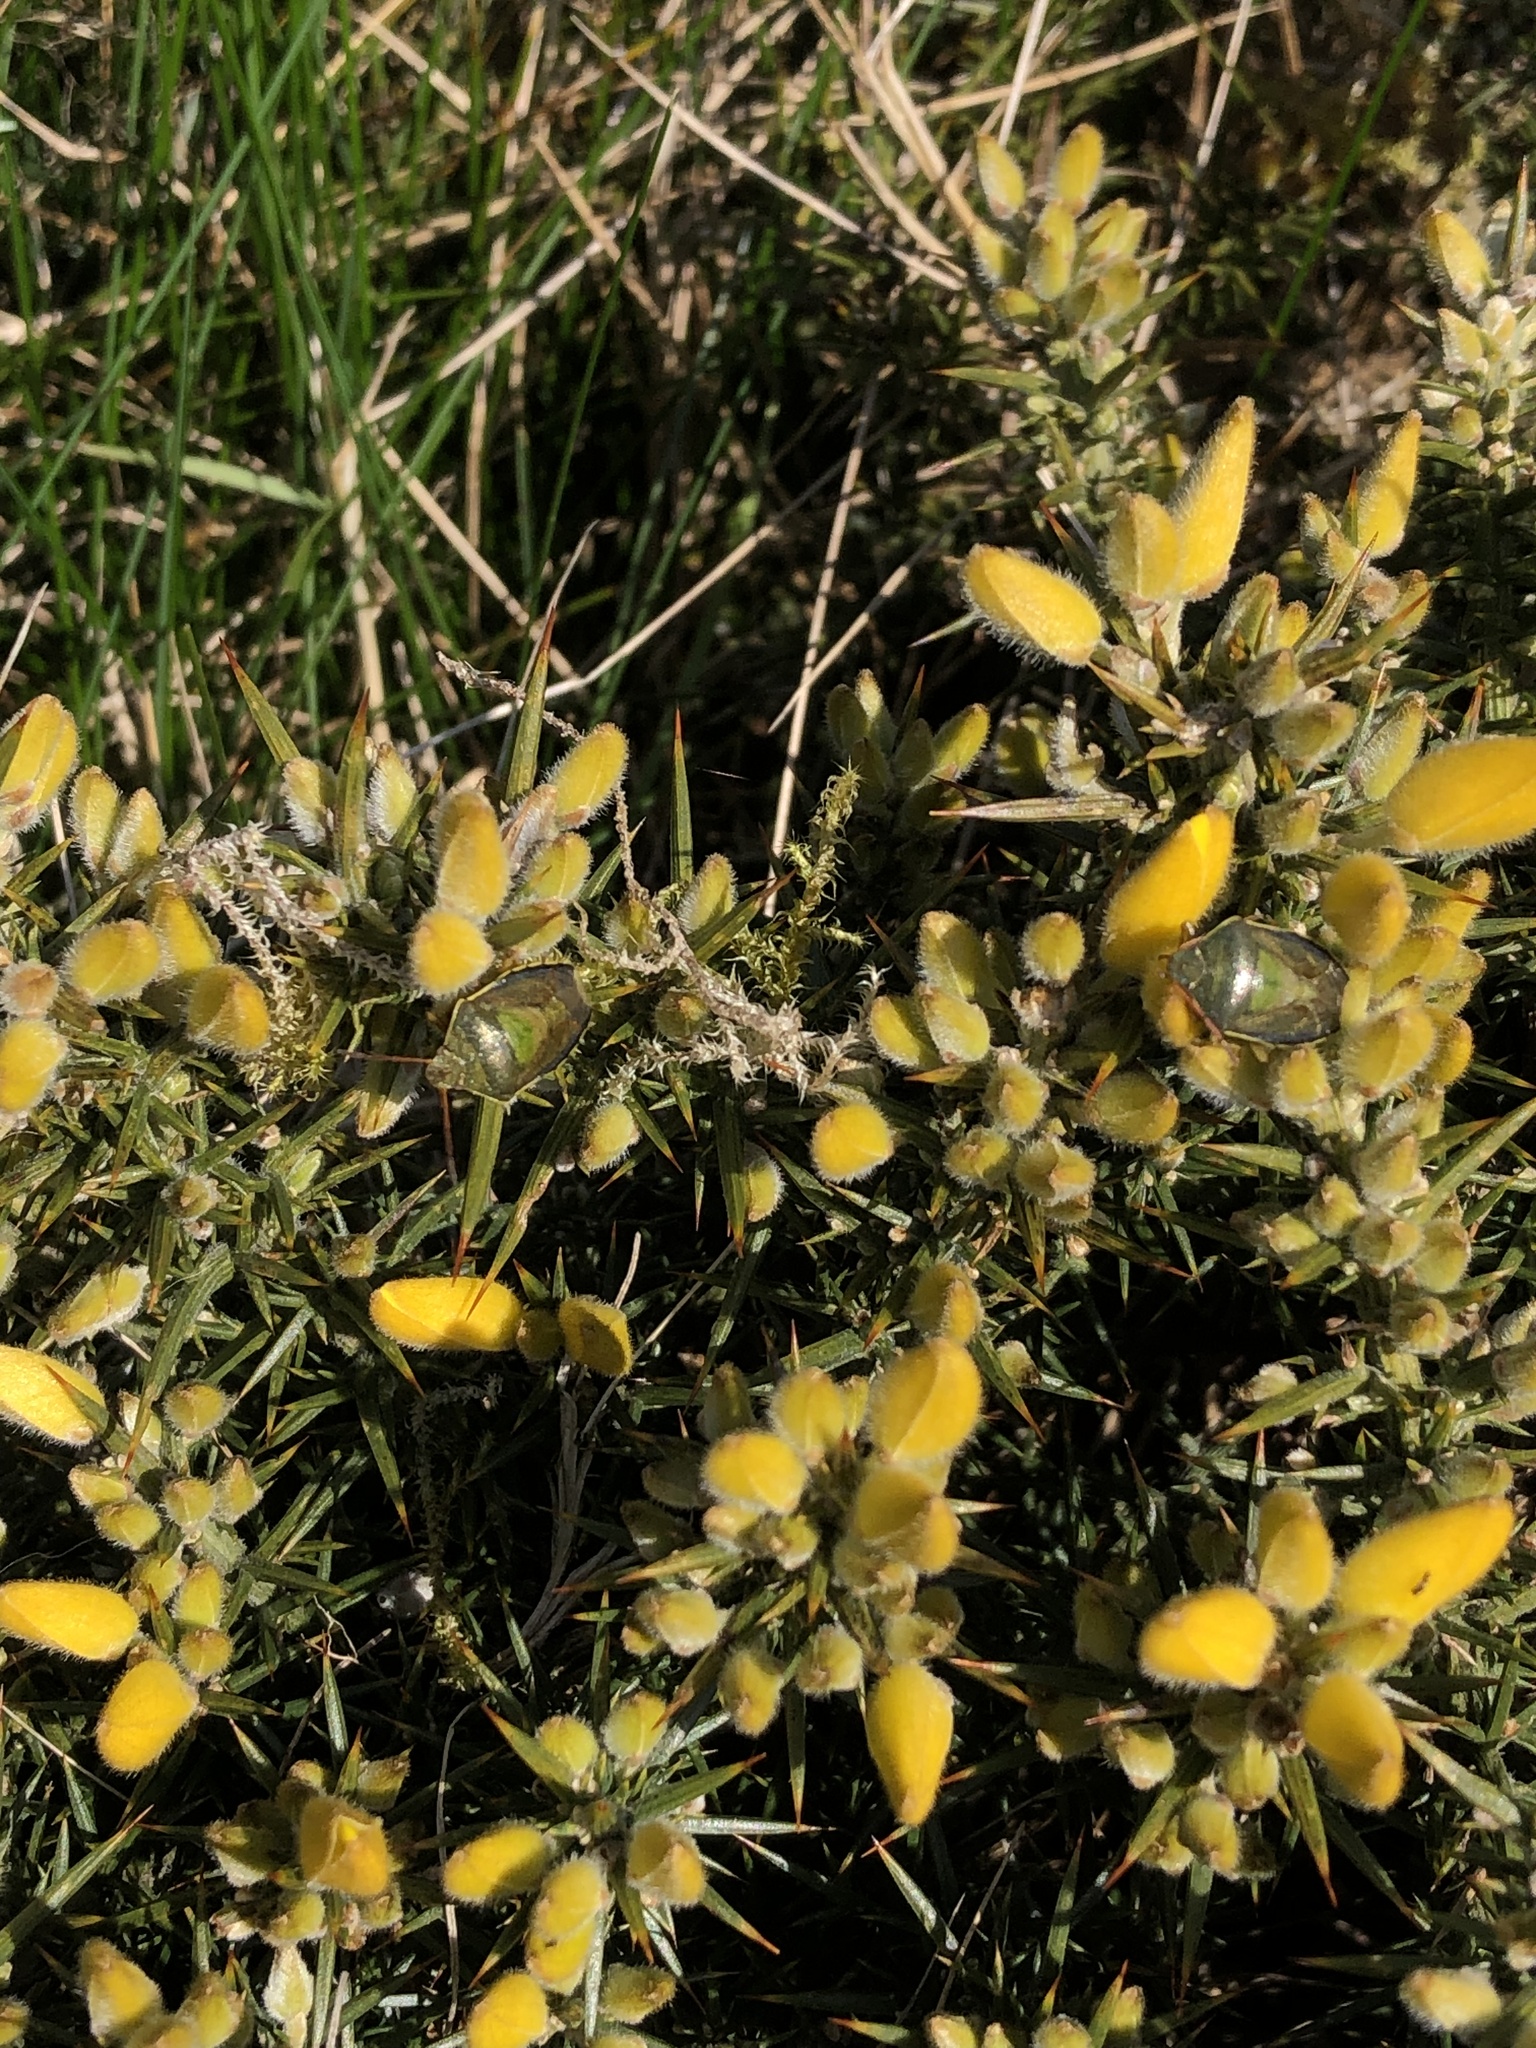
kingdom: Animalia
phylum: Arthropoda
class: Insecta
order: Hemiptera
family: Pentatomidae
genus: Piezodorus
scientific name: Piezodorus lituratus
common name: Stink bug
